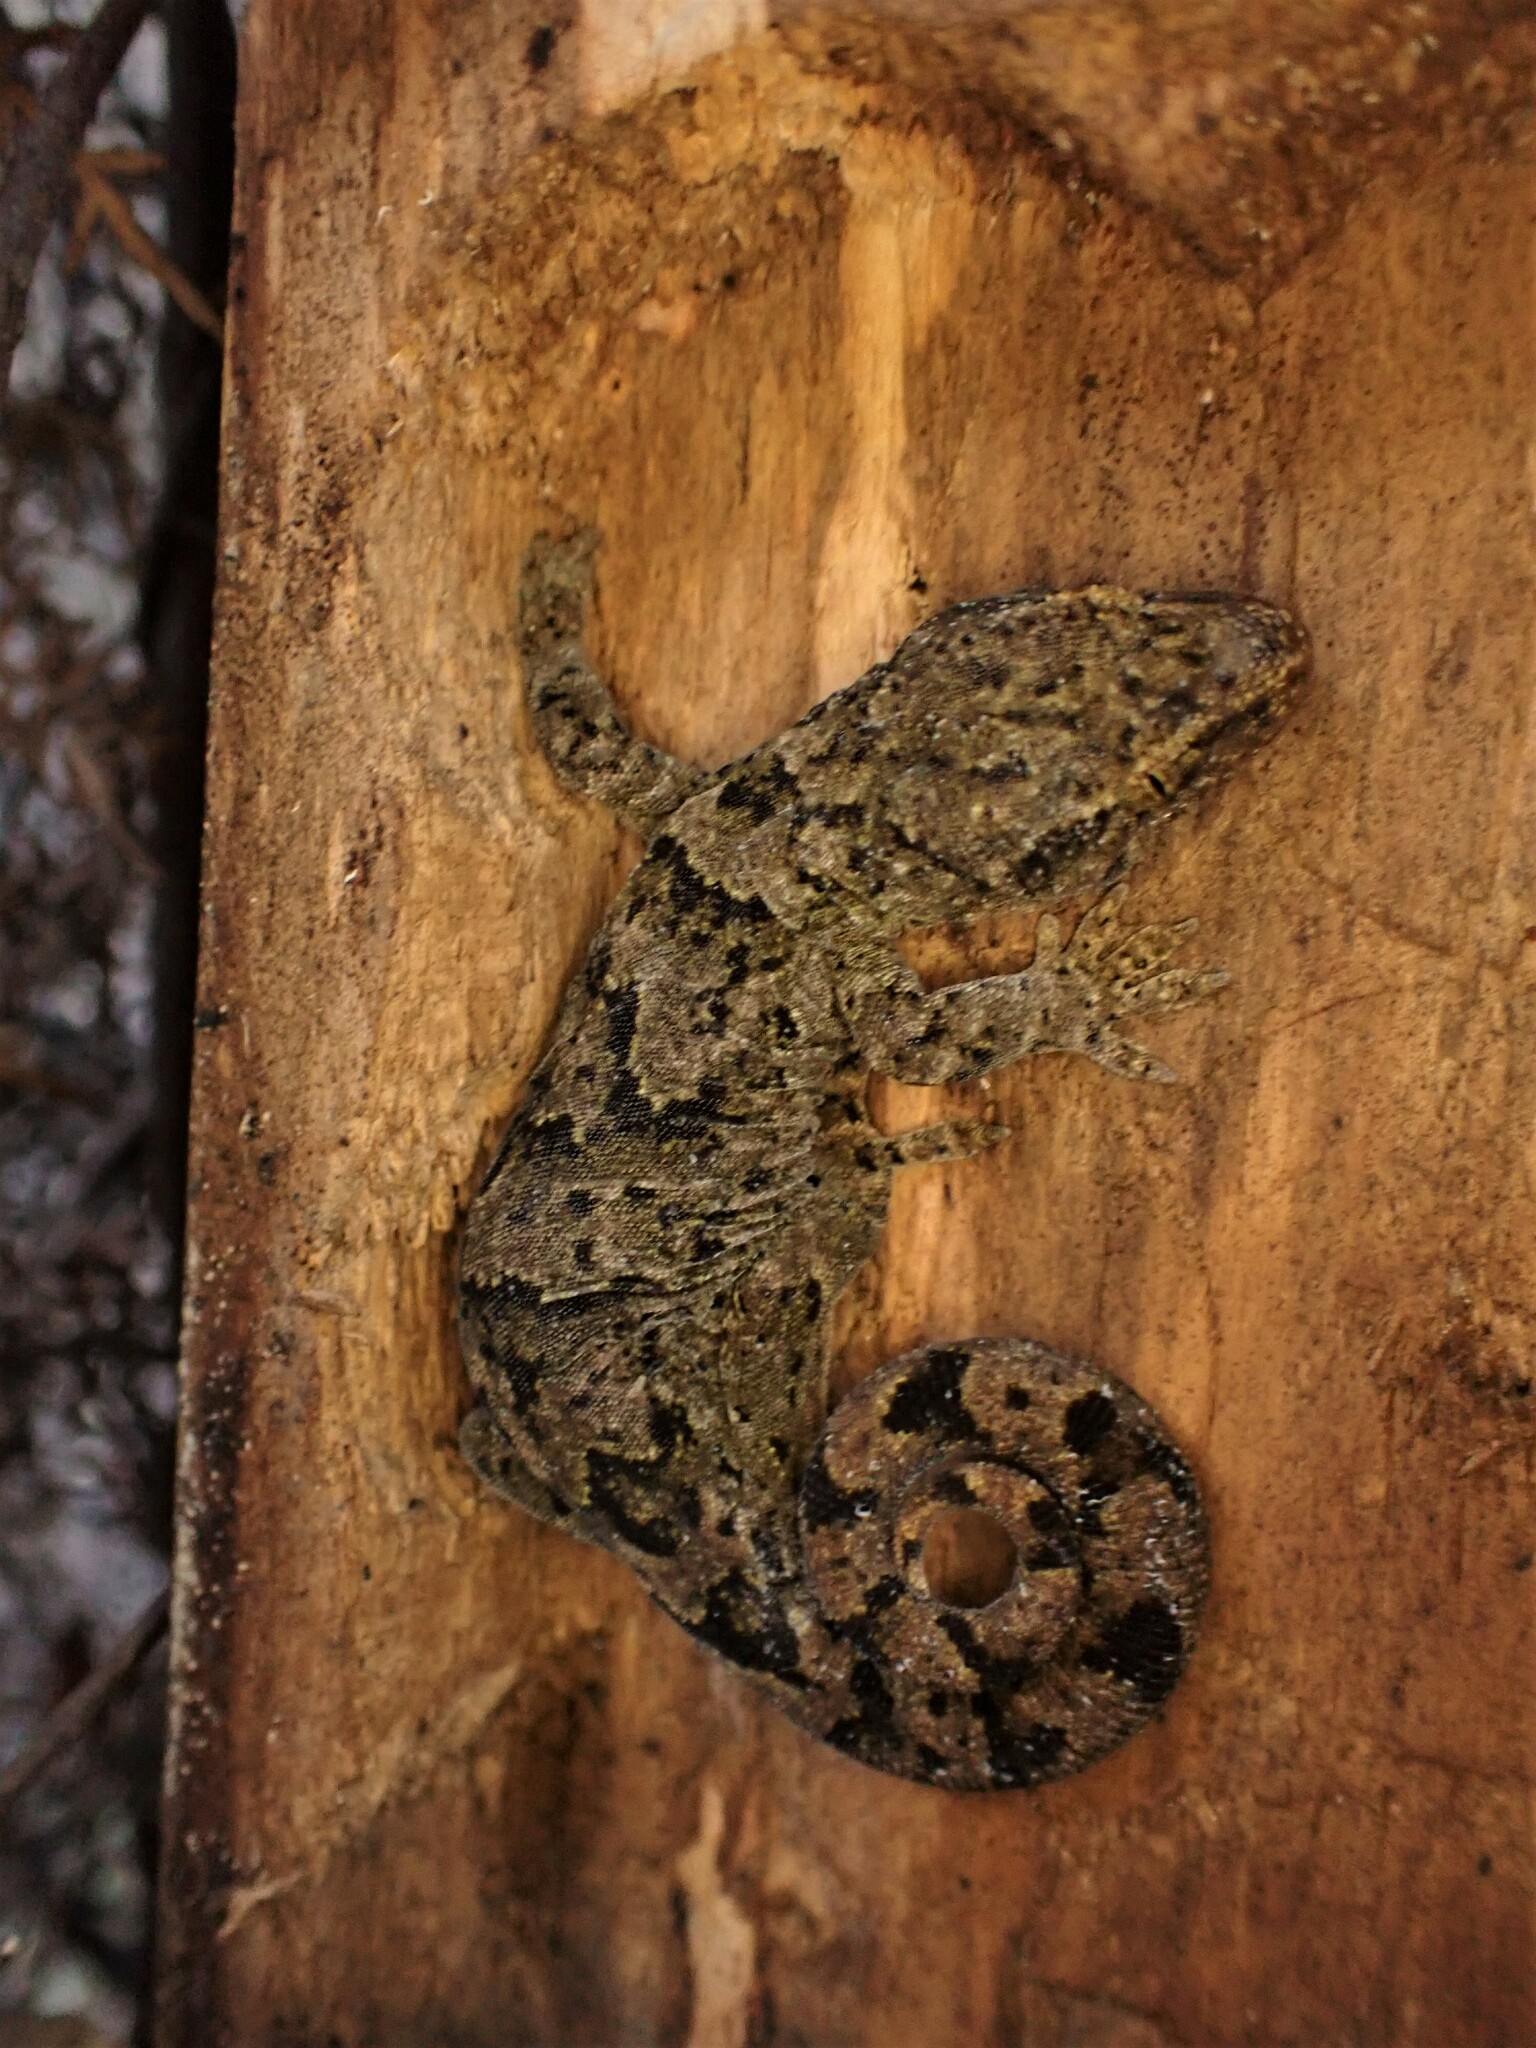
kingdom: Animalia
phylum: Chordata
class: Squamata
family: Diplodactylidae
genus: Woodworthia
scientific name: Woodworthia brunnea
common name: Canterbury gecko
